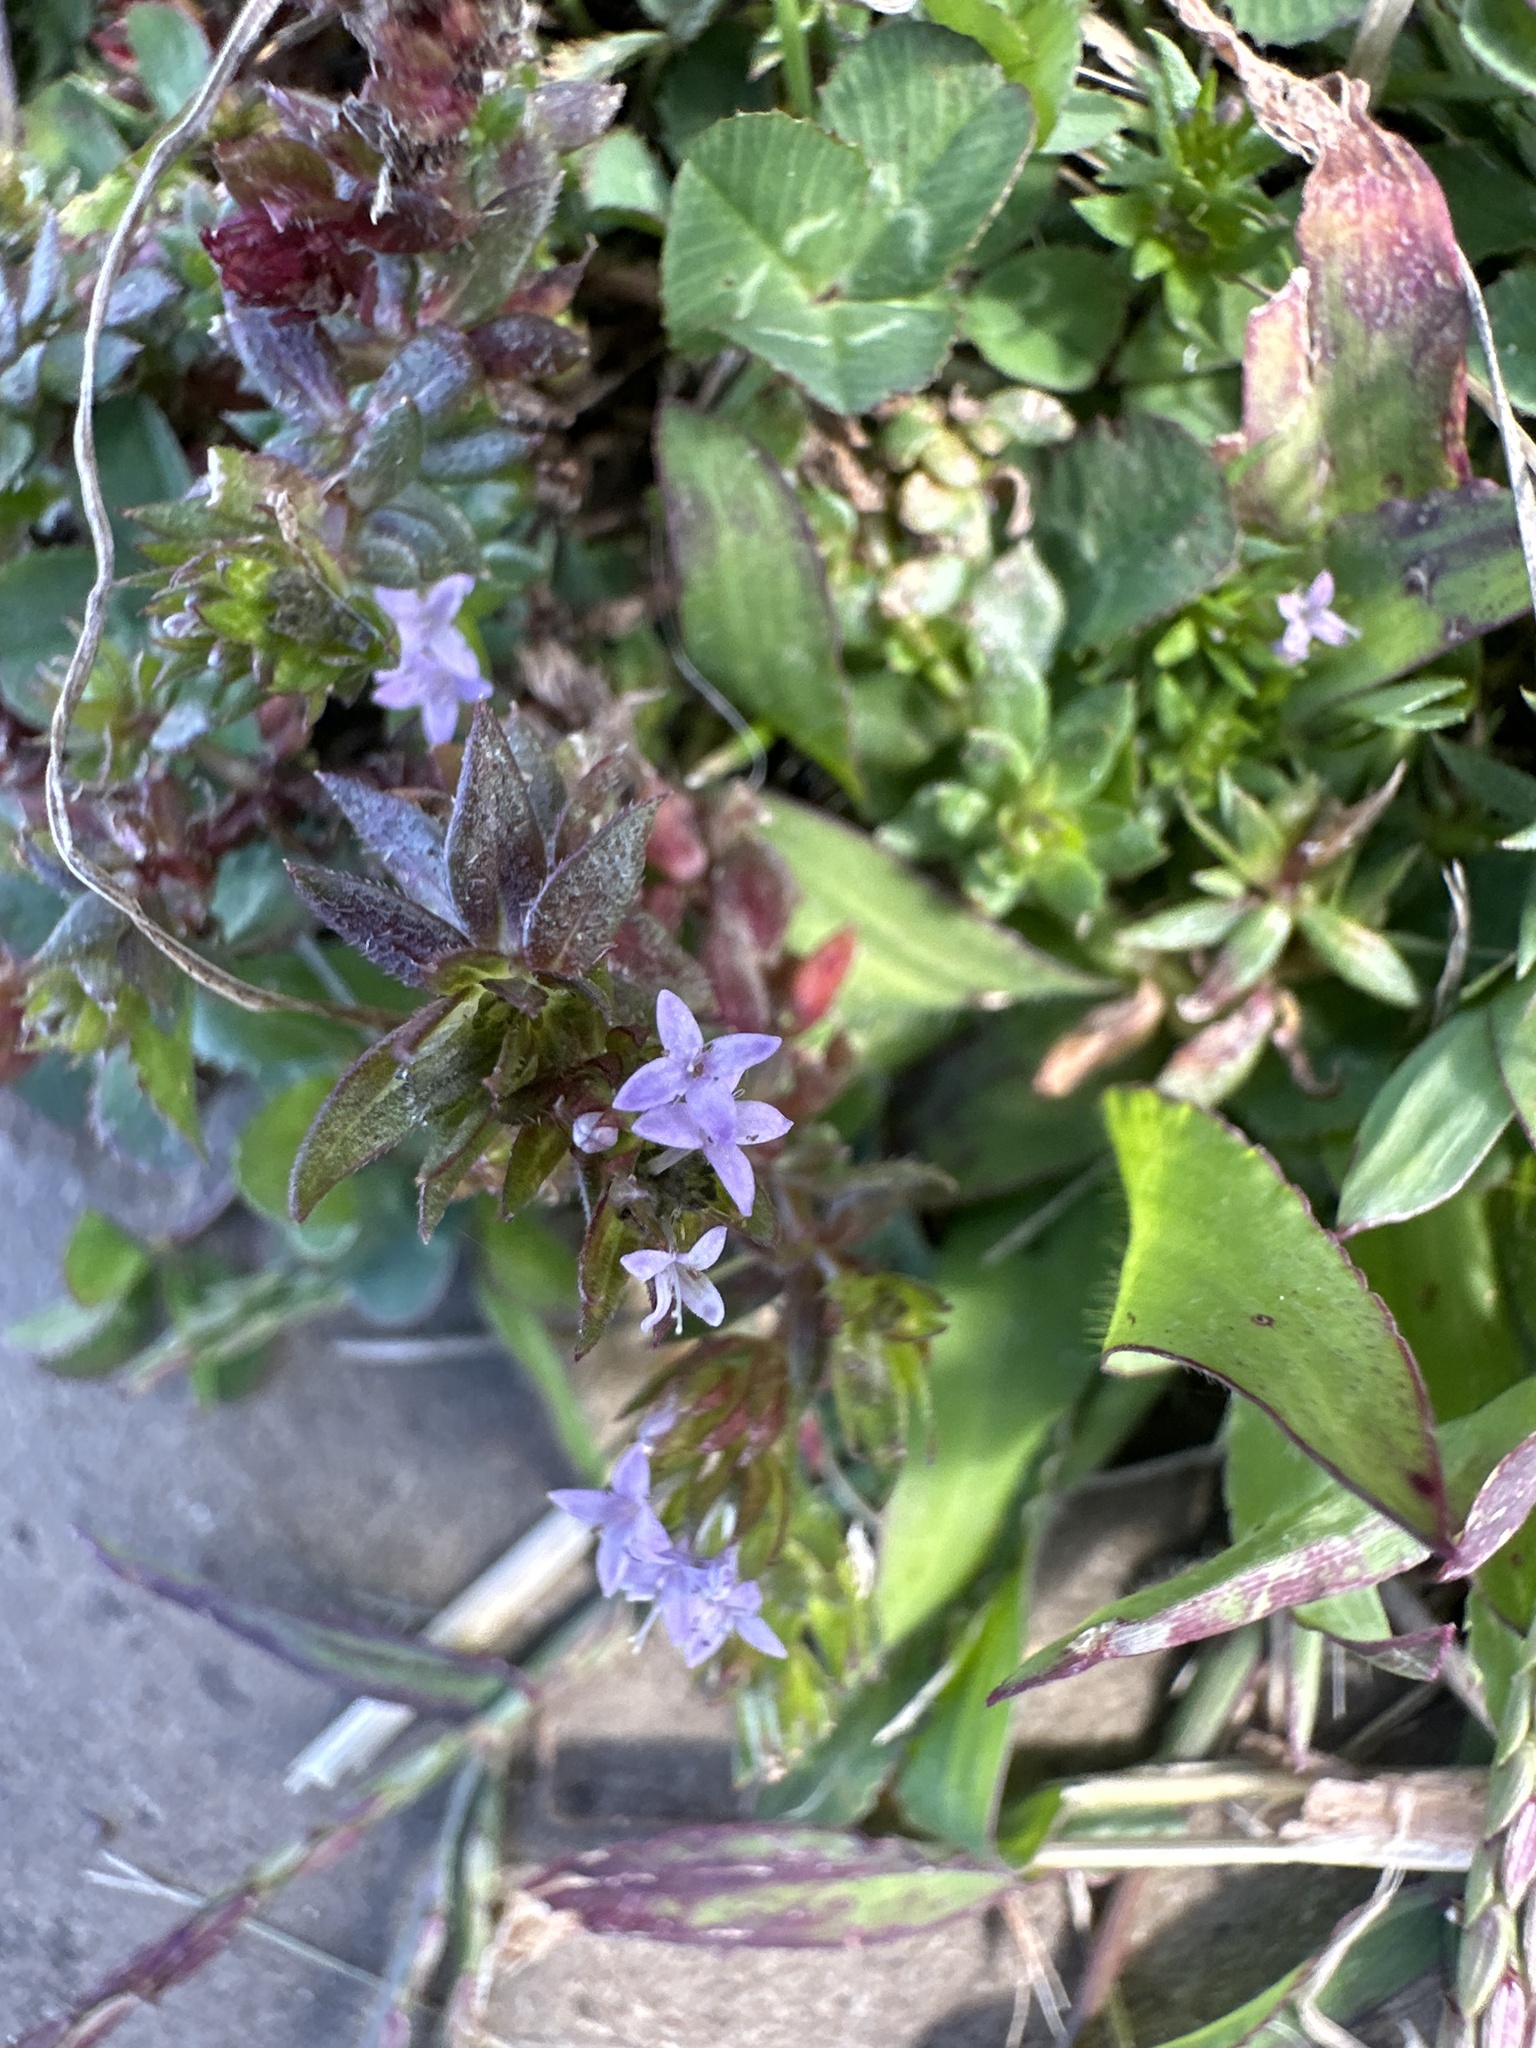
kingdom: Plantae
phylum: Tracheophyta
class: Magnoliopsida
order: Gentianales
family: Rubiaceae
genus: Sherardia
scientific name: Sherardia arvensis
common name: Field madder
